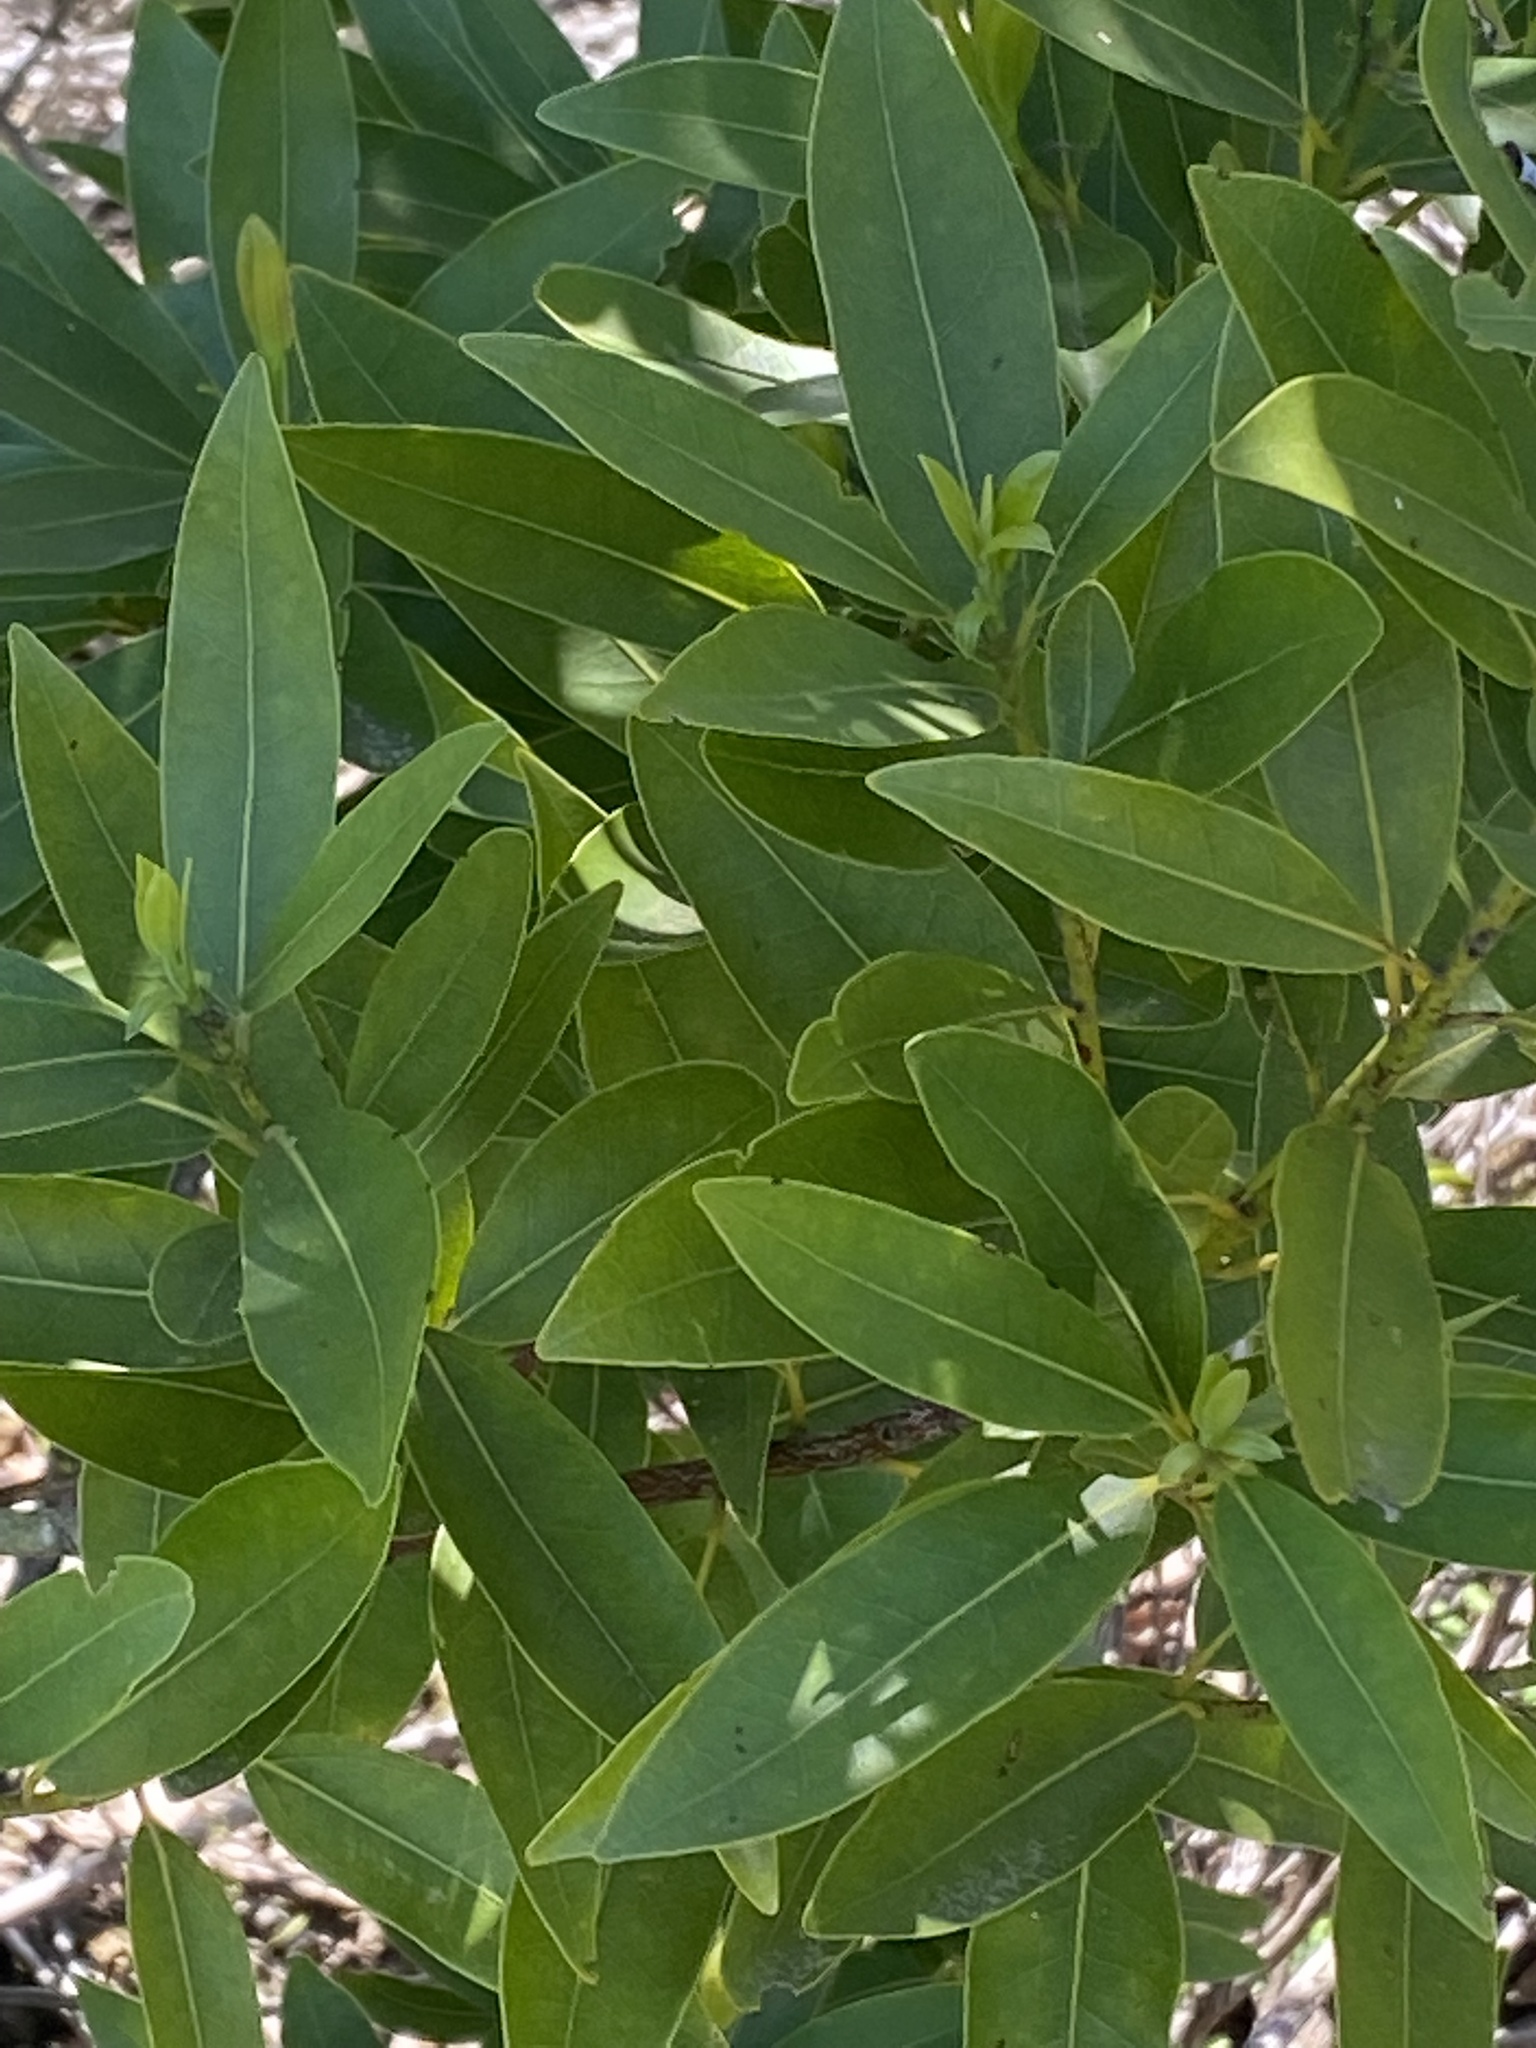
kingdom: Plantae
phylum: Tracheophyta
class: Magnoliopsida
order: Laurales
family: Lauraceae
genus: Umbellularia
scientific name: Umbellularia californica
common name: California bay
